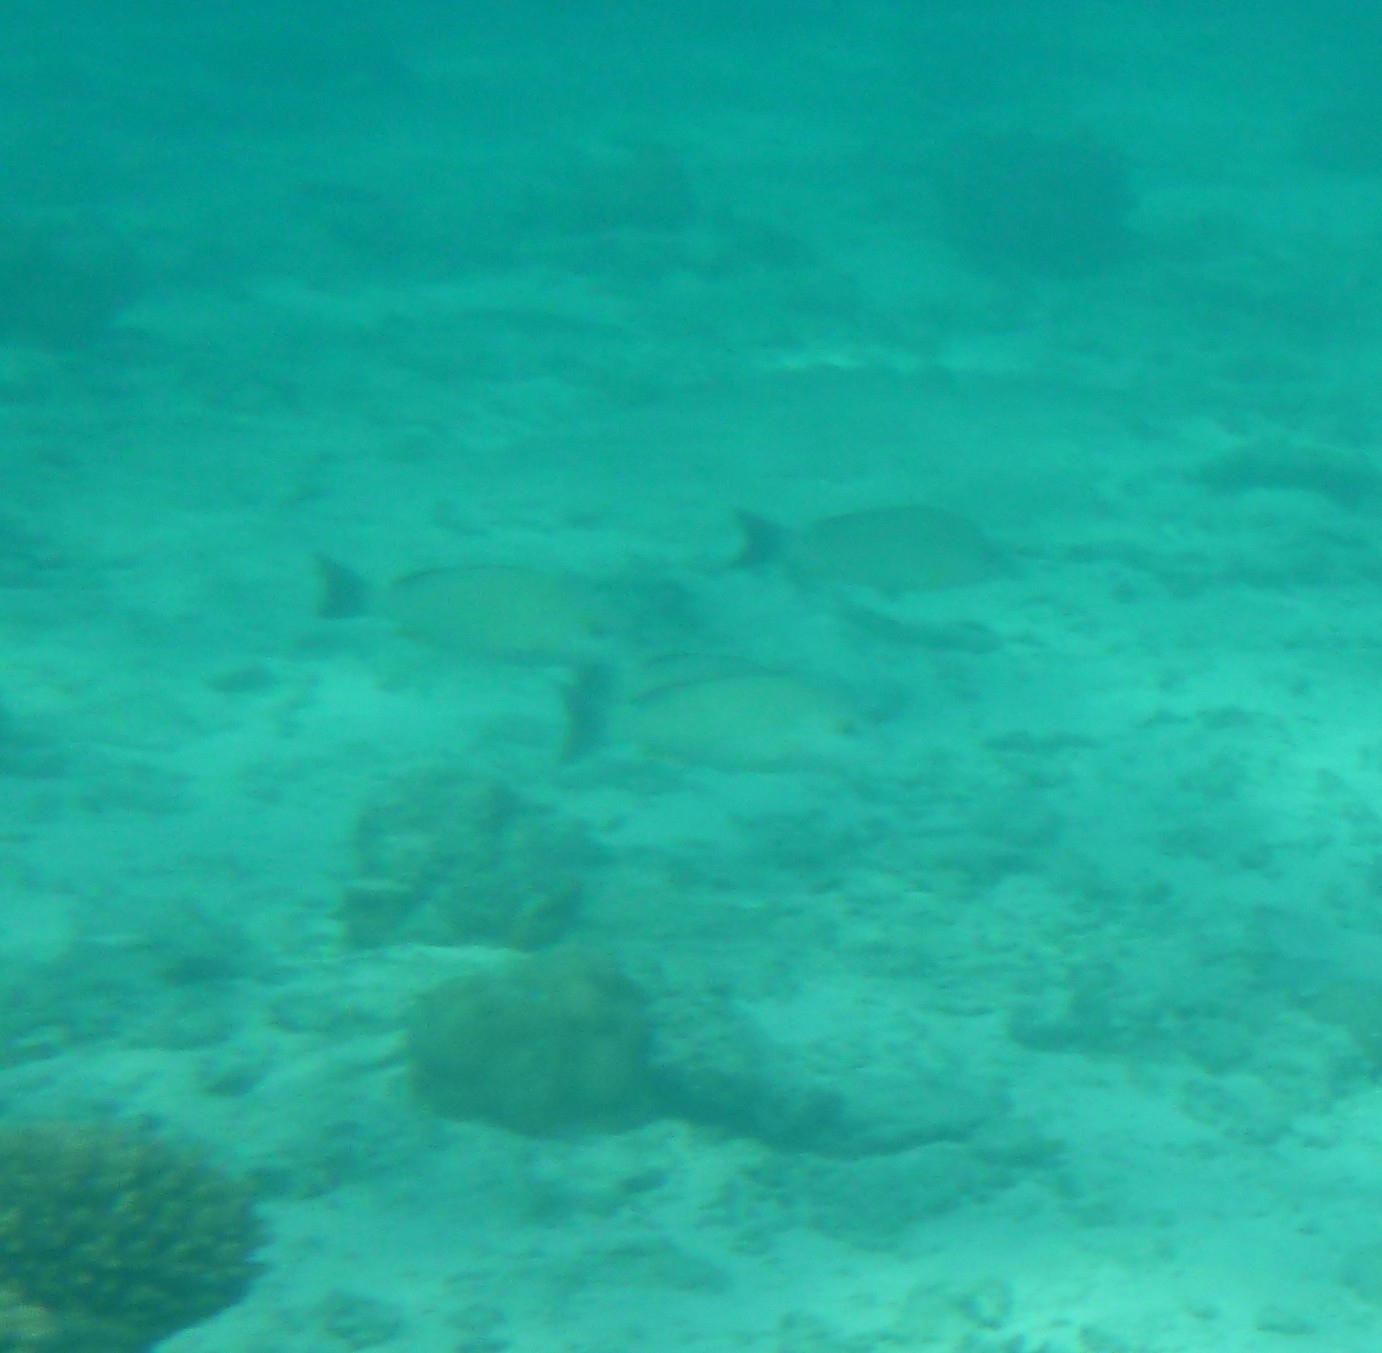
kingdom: Animalia
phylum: Chordata
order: Perciformes
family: Lutjanidae
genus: Lutjanus
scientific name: Lutjanus fulvus
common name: Blacktail snapper
